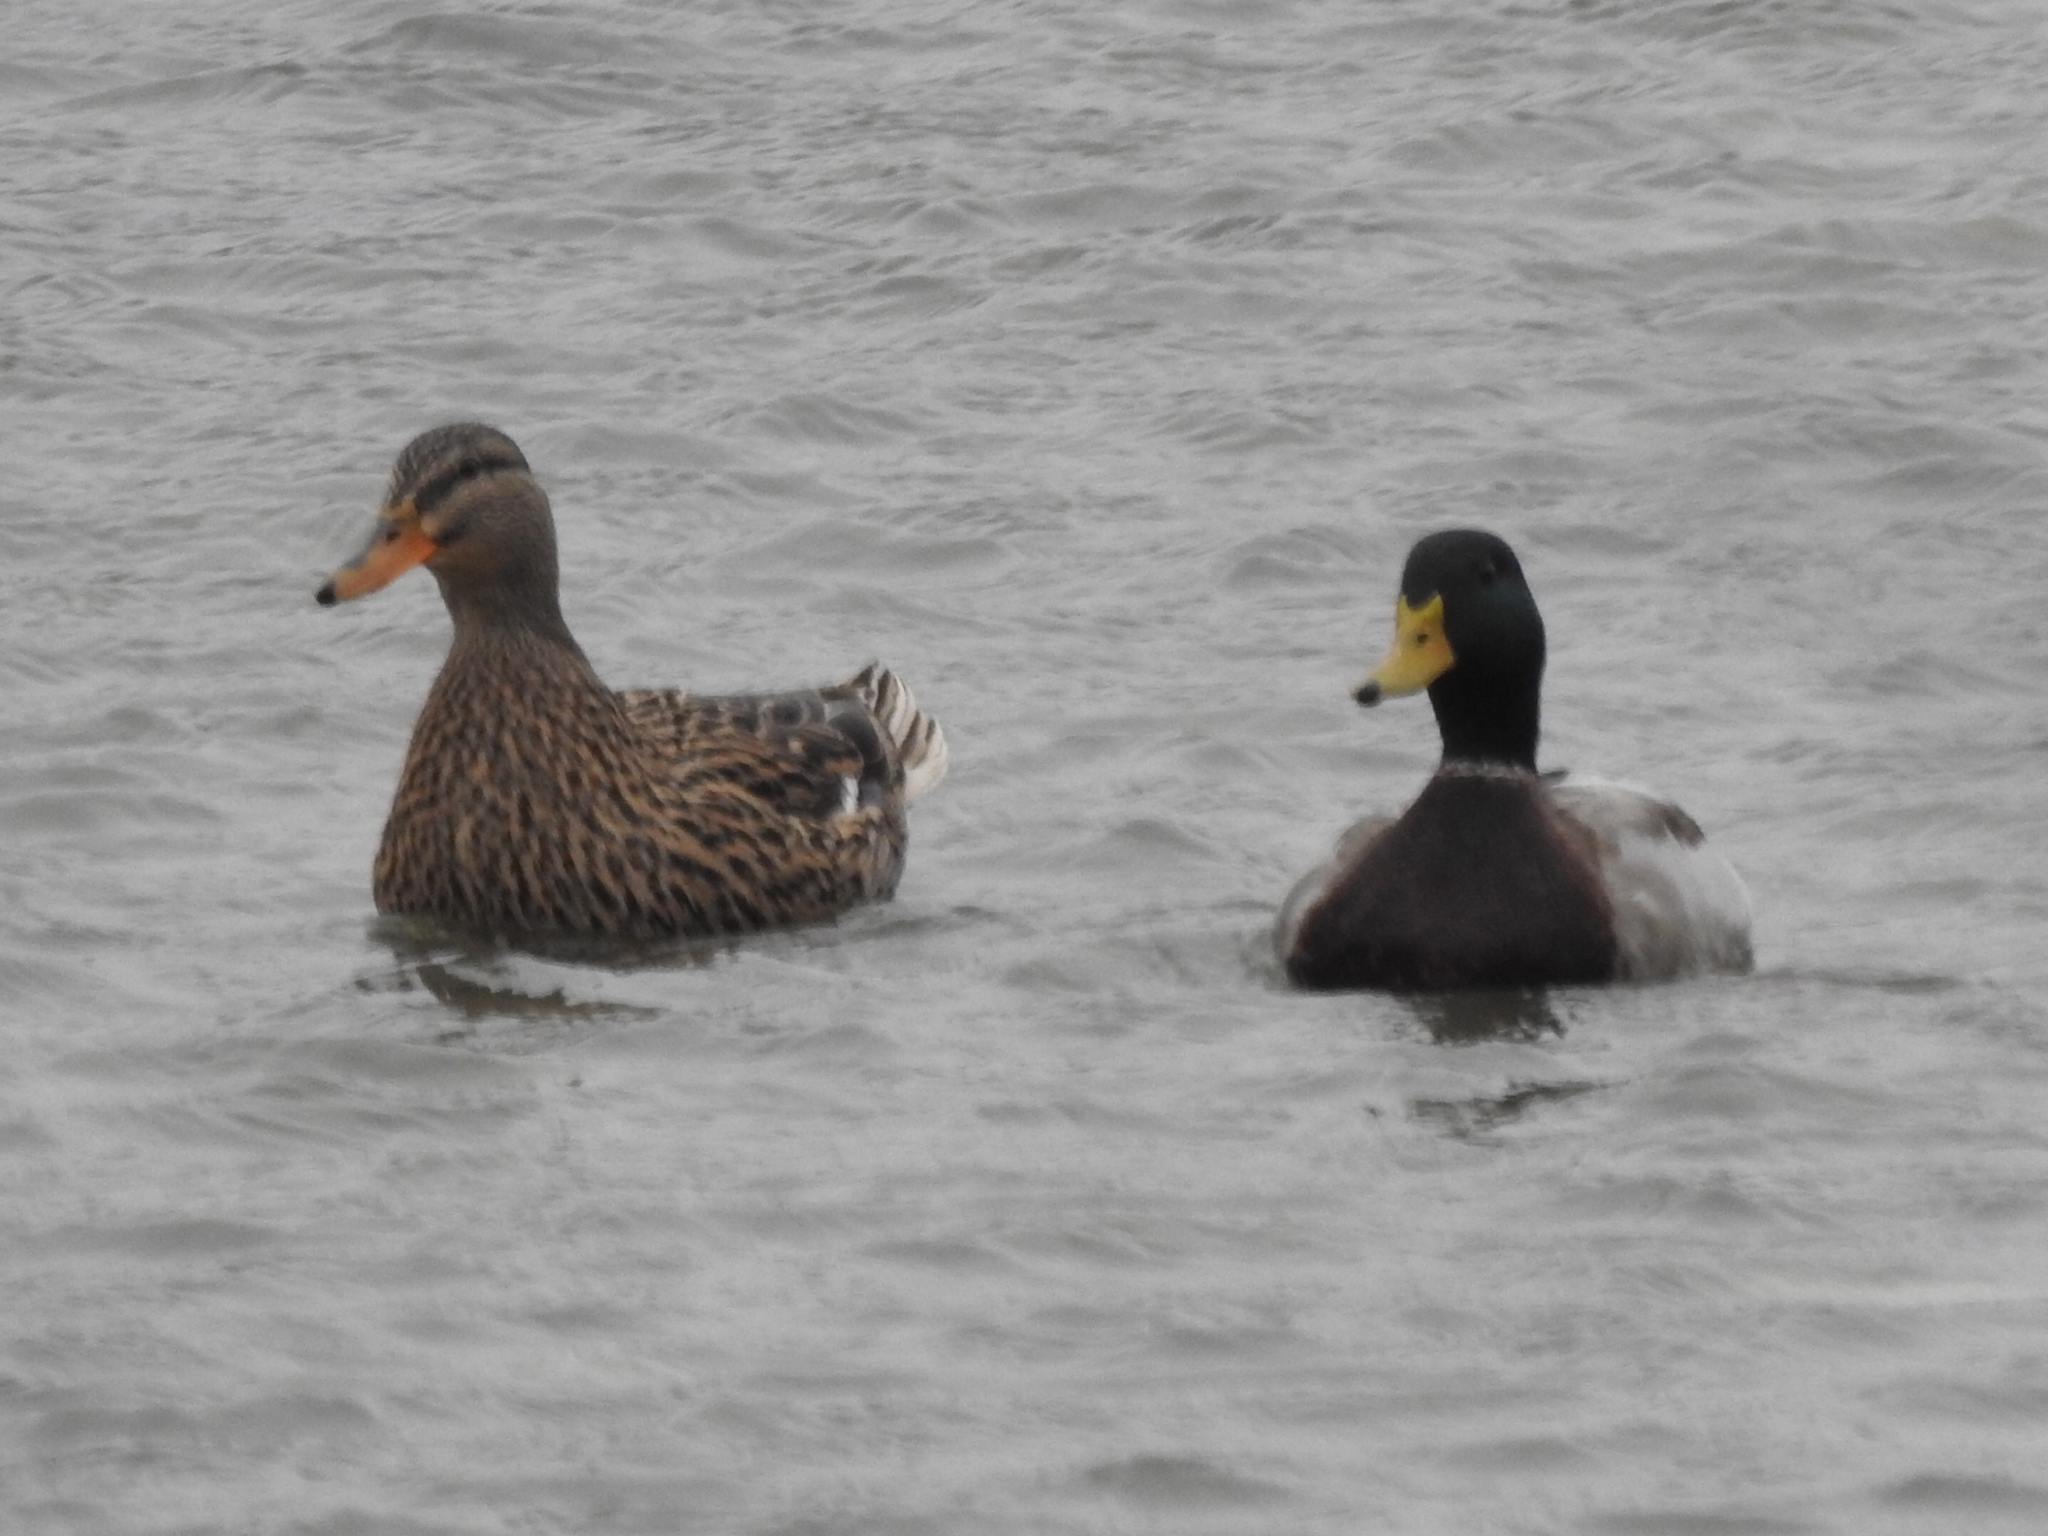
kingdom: Animalia
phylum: Chordata
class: Aves
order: Anseriformes
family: Anatidae
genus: Anas
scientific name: Anas platyrhynchos
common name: Mallard
